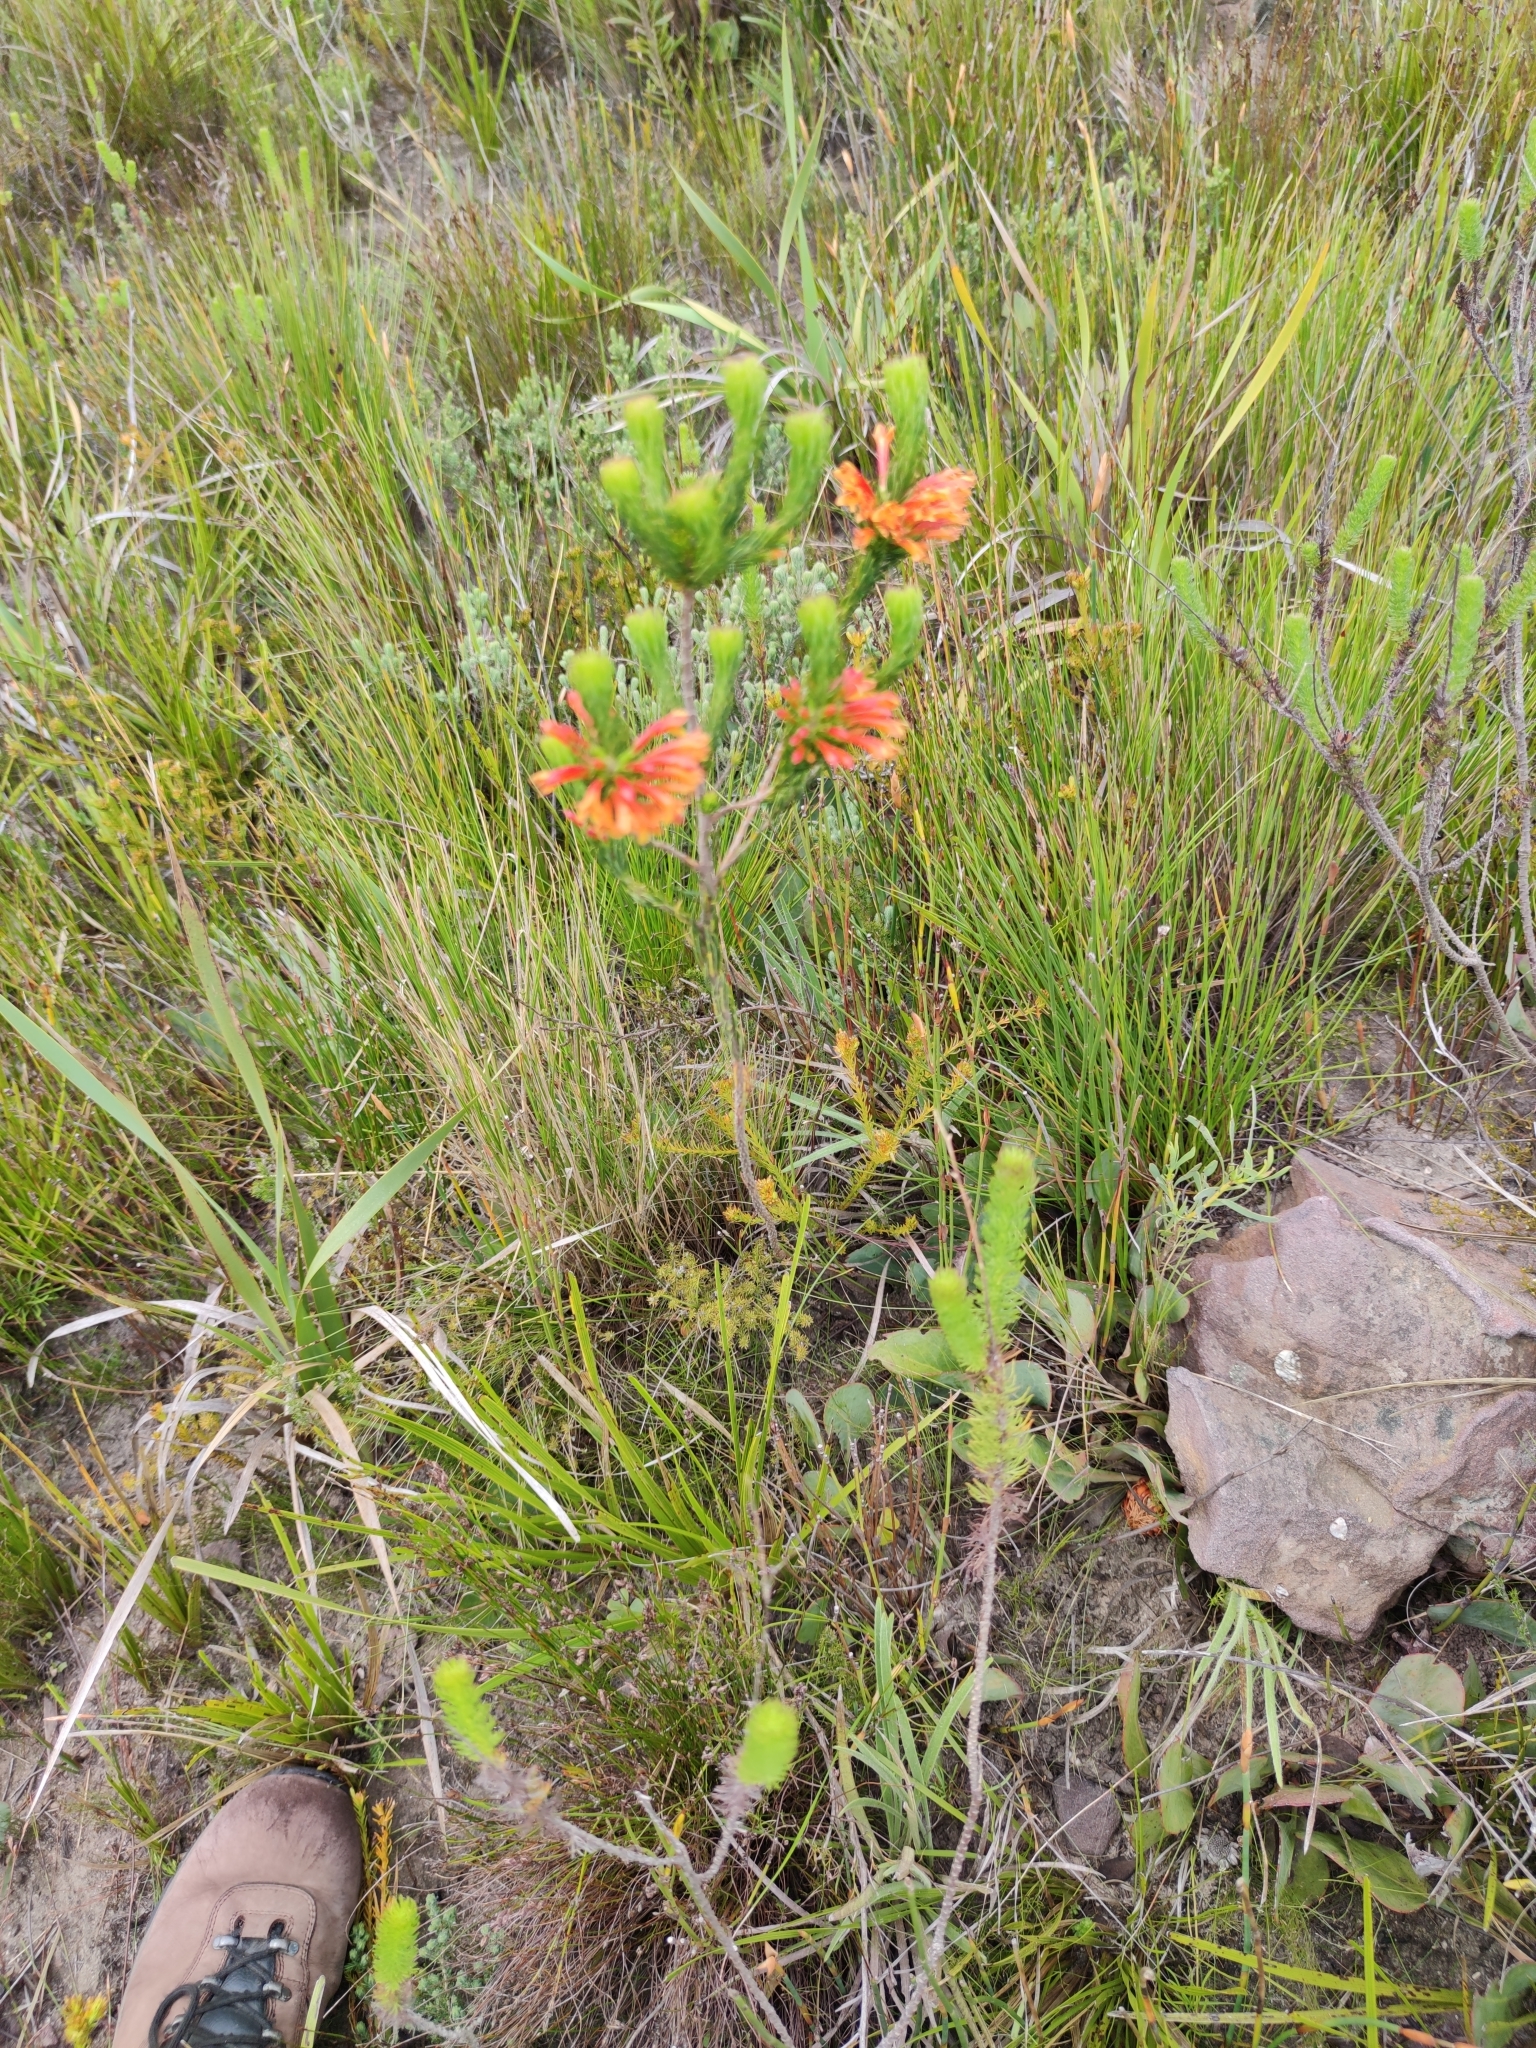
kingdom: Plantae
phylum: Tracheophyta
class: Magnoliopsida
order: Ericales
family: Ericaceae
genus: Erica
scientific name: Erica grandiflora
